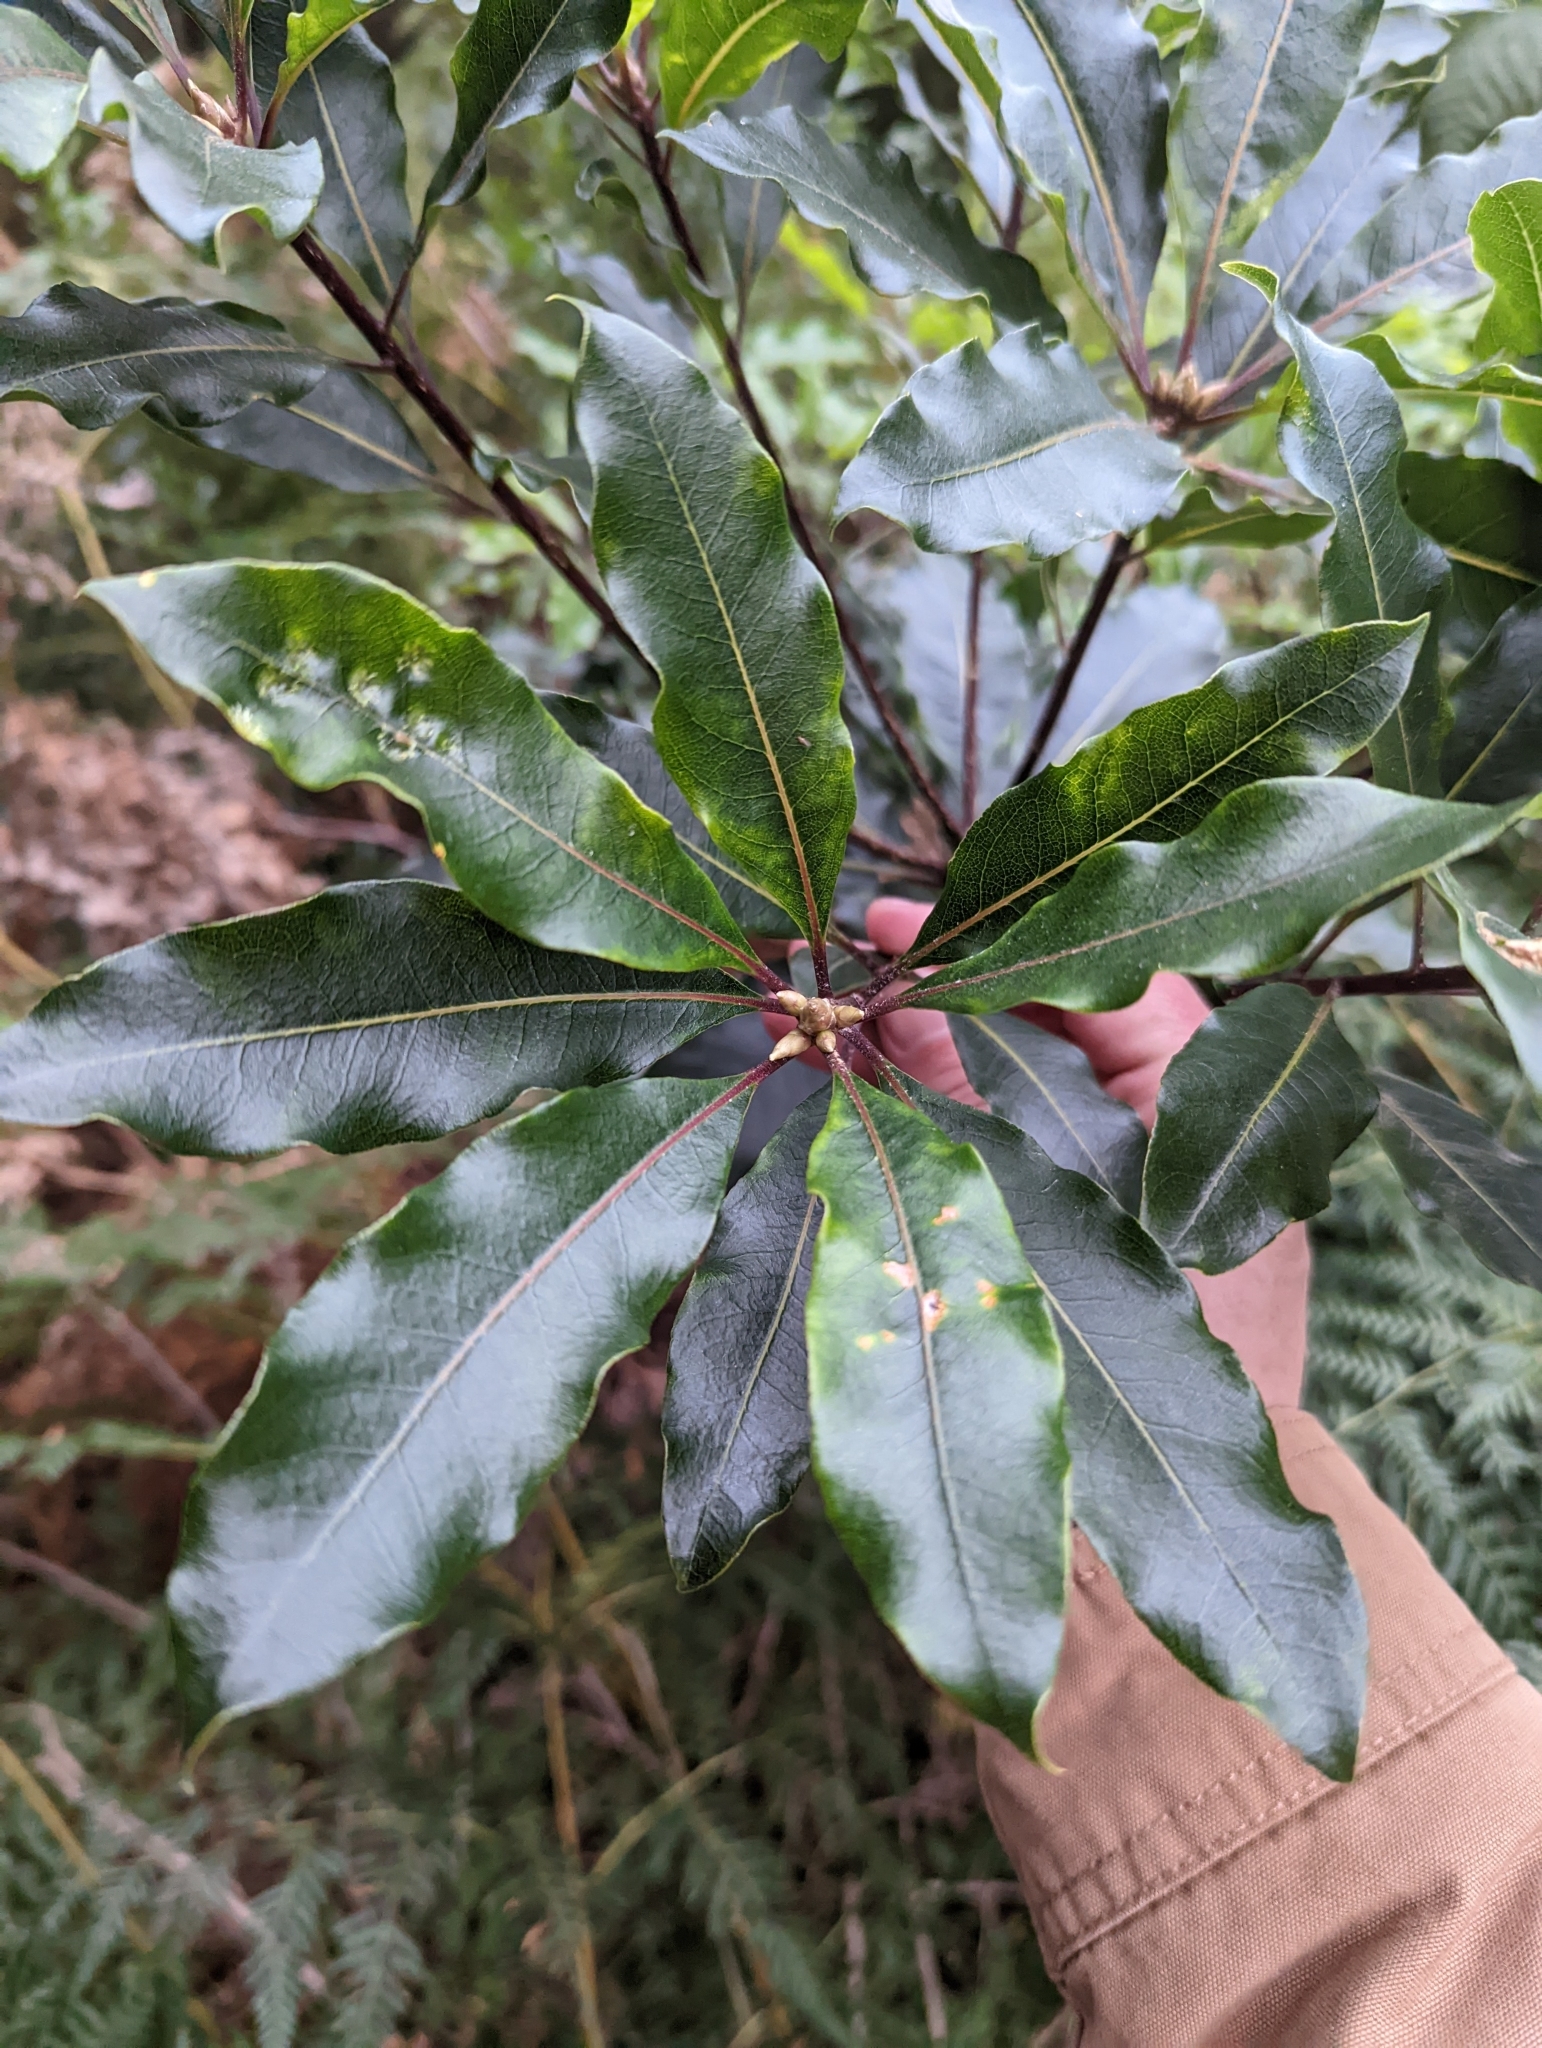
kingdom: Plantae
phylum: Tracheophyta
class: Magnoliopsida
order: Apiales
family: Pittosporaceae
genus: Pittosporum
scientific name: Pittosporum undulatum
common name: Australian cheesewood
